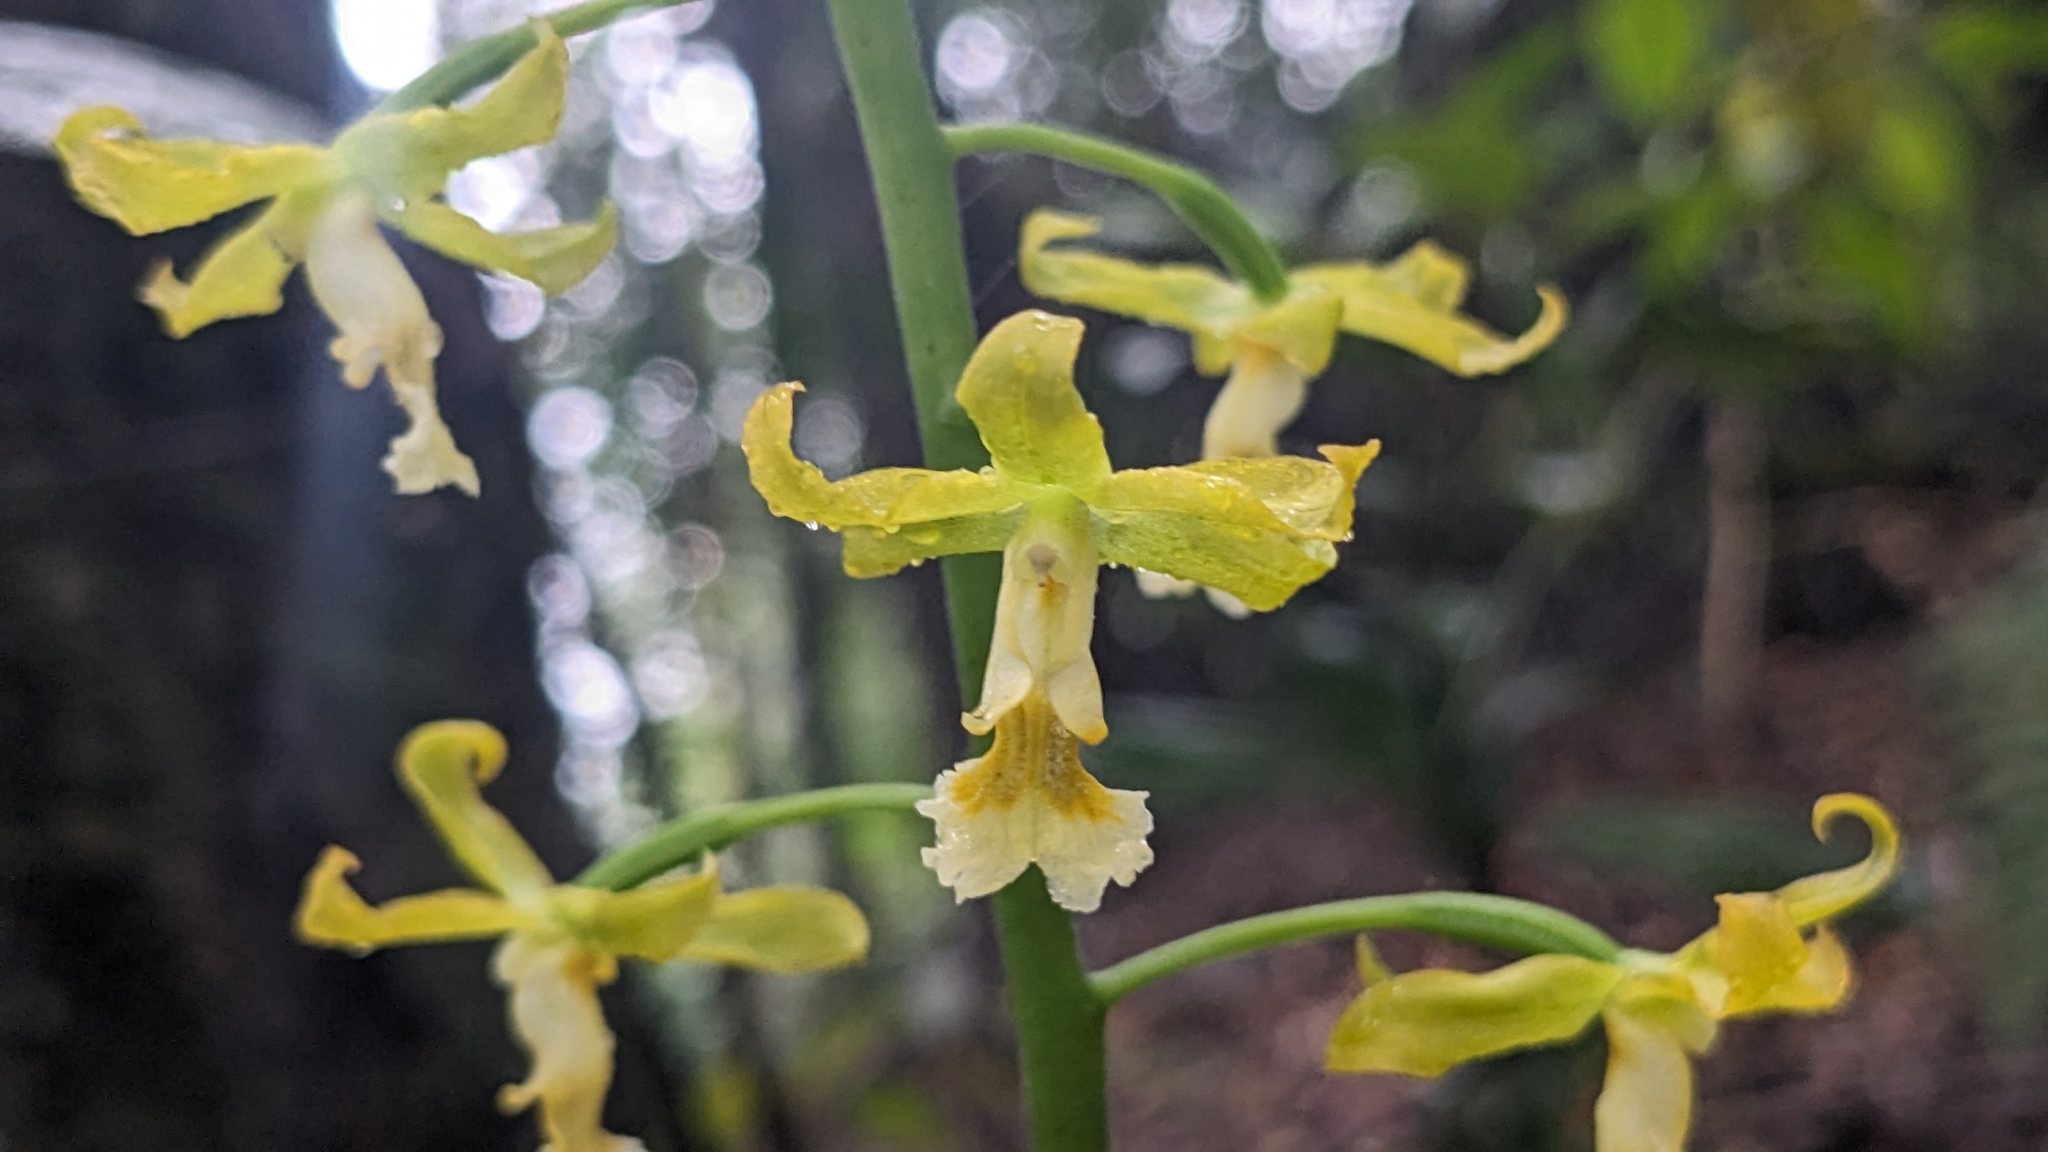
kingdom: Plantae
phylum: Tracheophyta
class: Liliopsida
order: Asparagales
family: Orchidaceae
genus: Calanthe
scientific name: Calanthe obcordata
